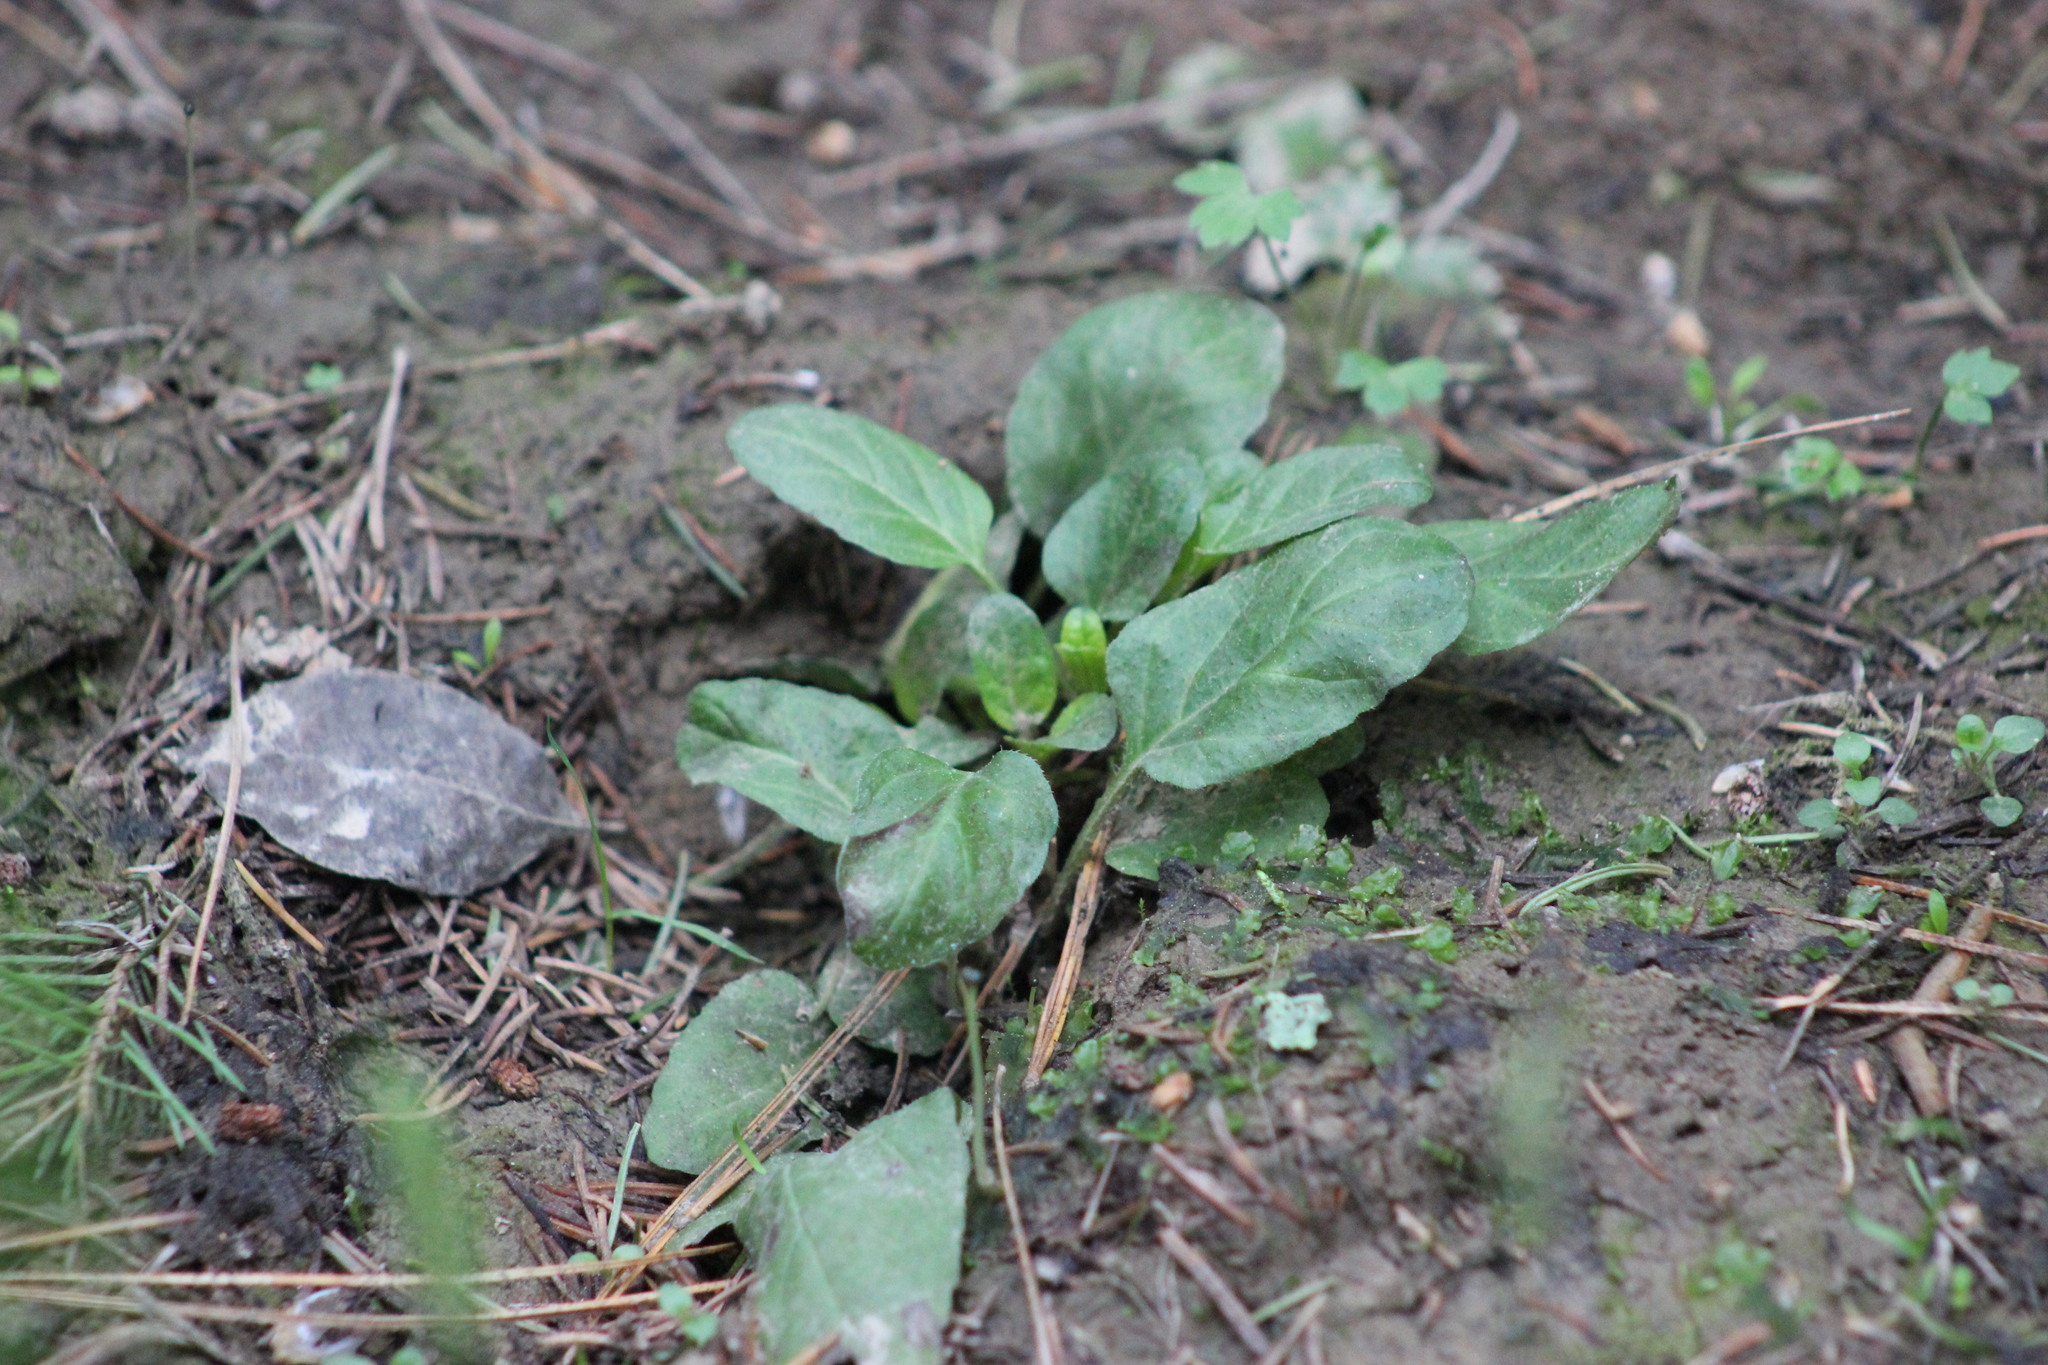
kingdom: Plantae
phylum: Tracheophyta
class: Magnoliopsida
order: Lamiales
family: Lamiaceae
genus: Prunella
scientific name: Prunella vulgaris
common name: Heal-all
